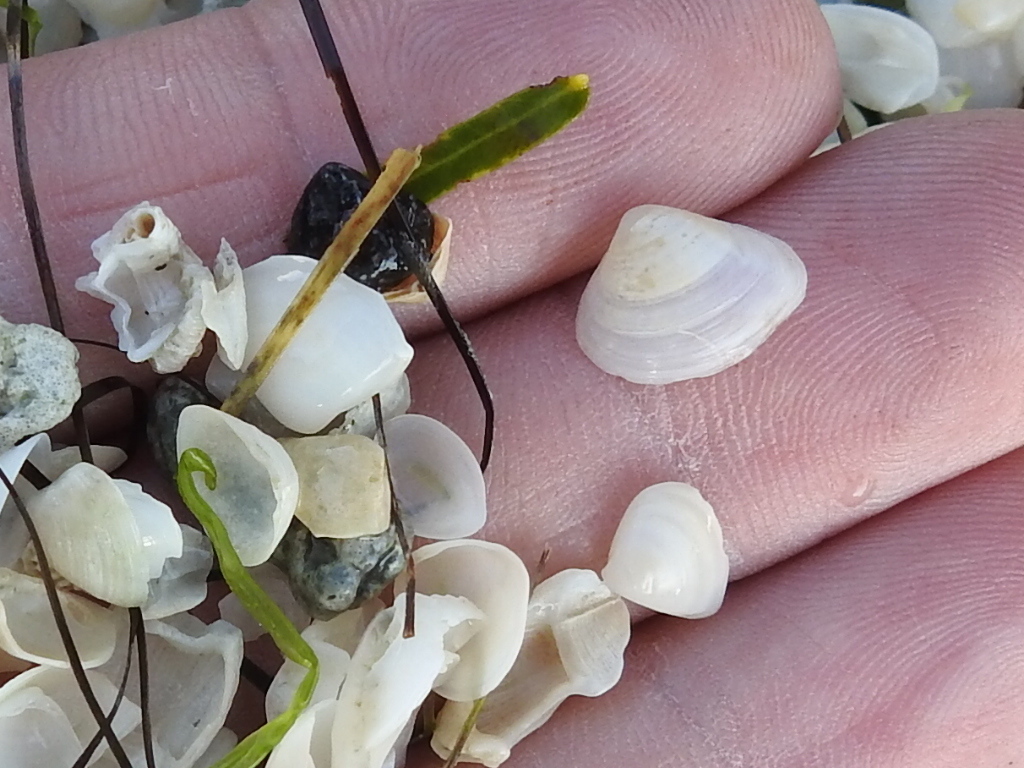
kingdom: Animalia
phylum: Mollusca
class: Bivalvia
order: Venerida
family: Mactridae
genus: Mulinia
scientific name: Mulinia lateralis
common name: Dwarf surfclam
